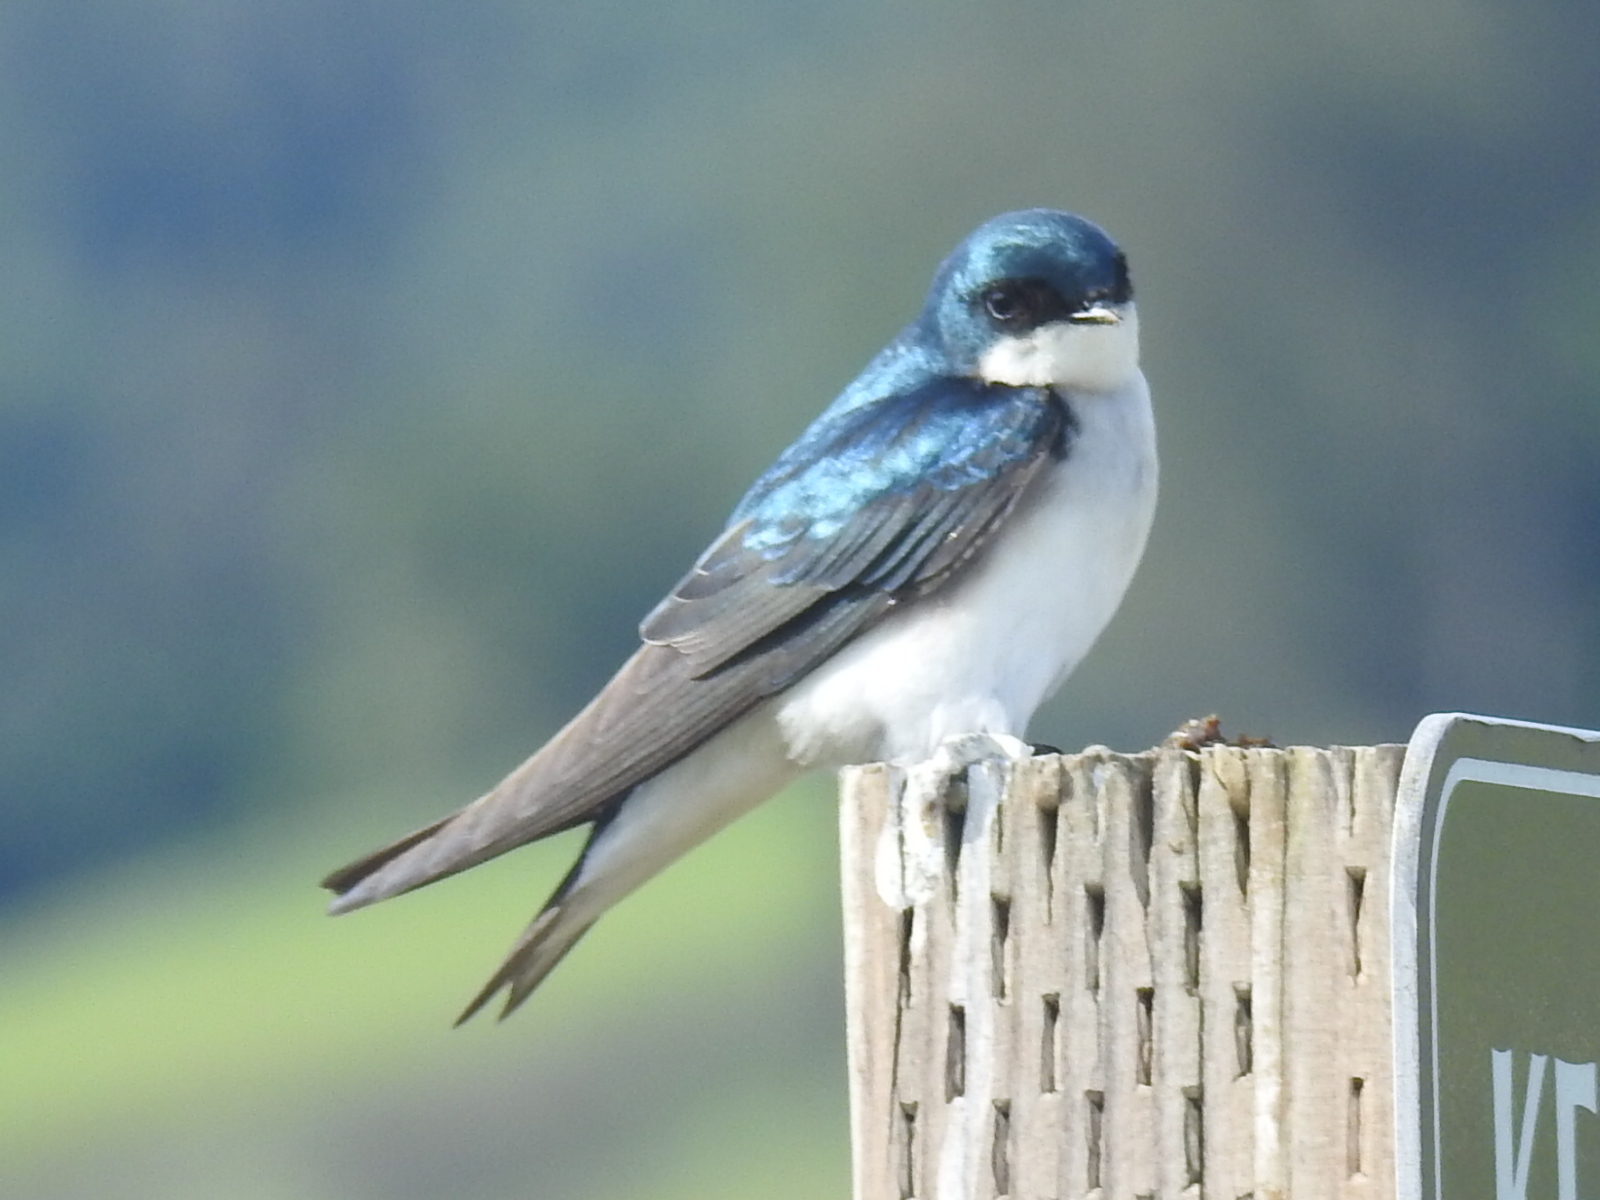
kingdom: Animalia
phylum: Chordata
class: Aves
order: Passeriformes
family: Hirundinidae
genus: Tachycineta
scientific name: Tachycineta bicolor
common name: Tree swallow
